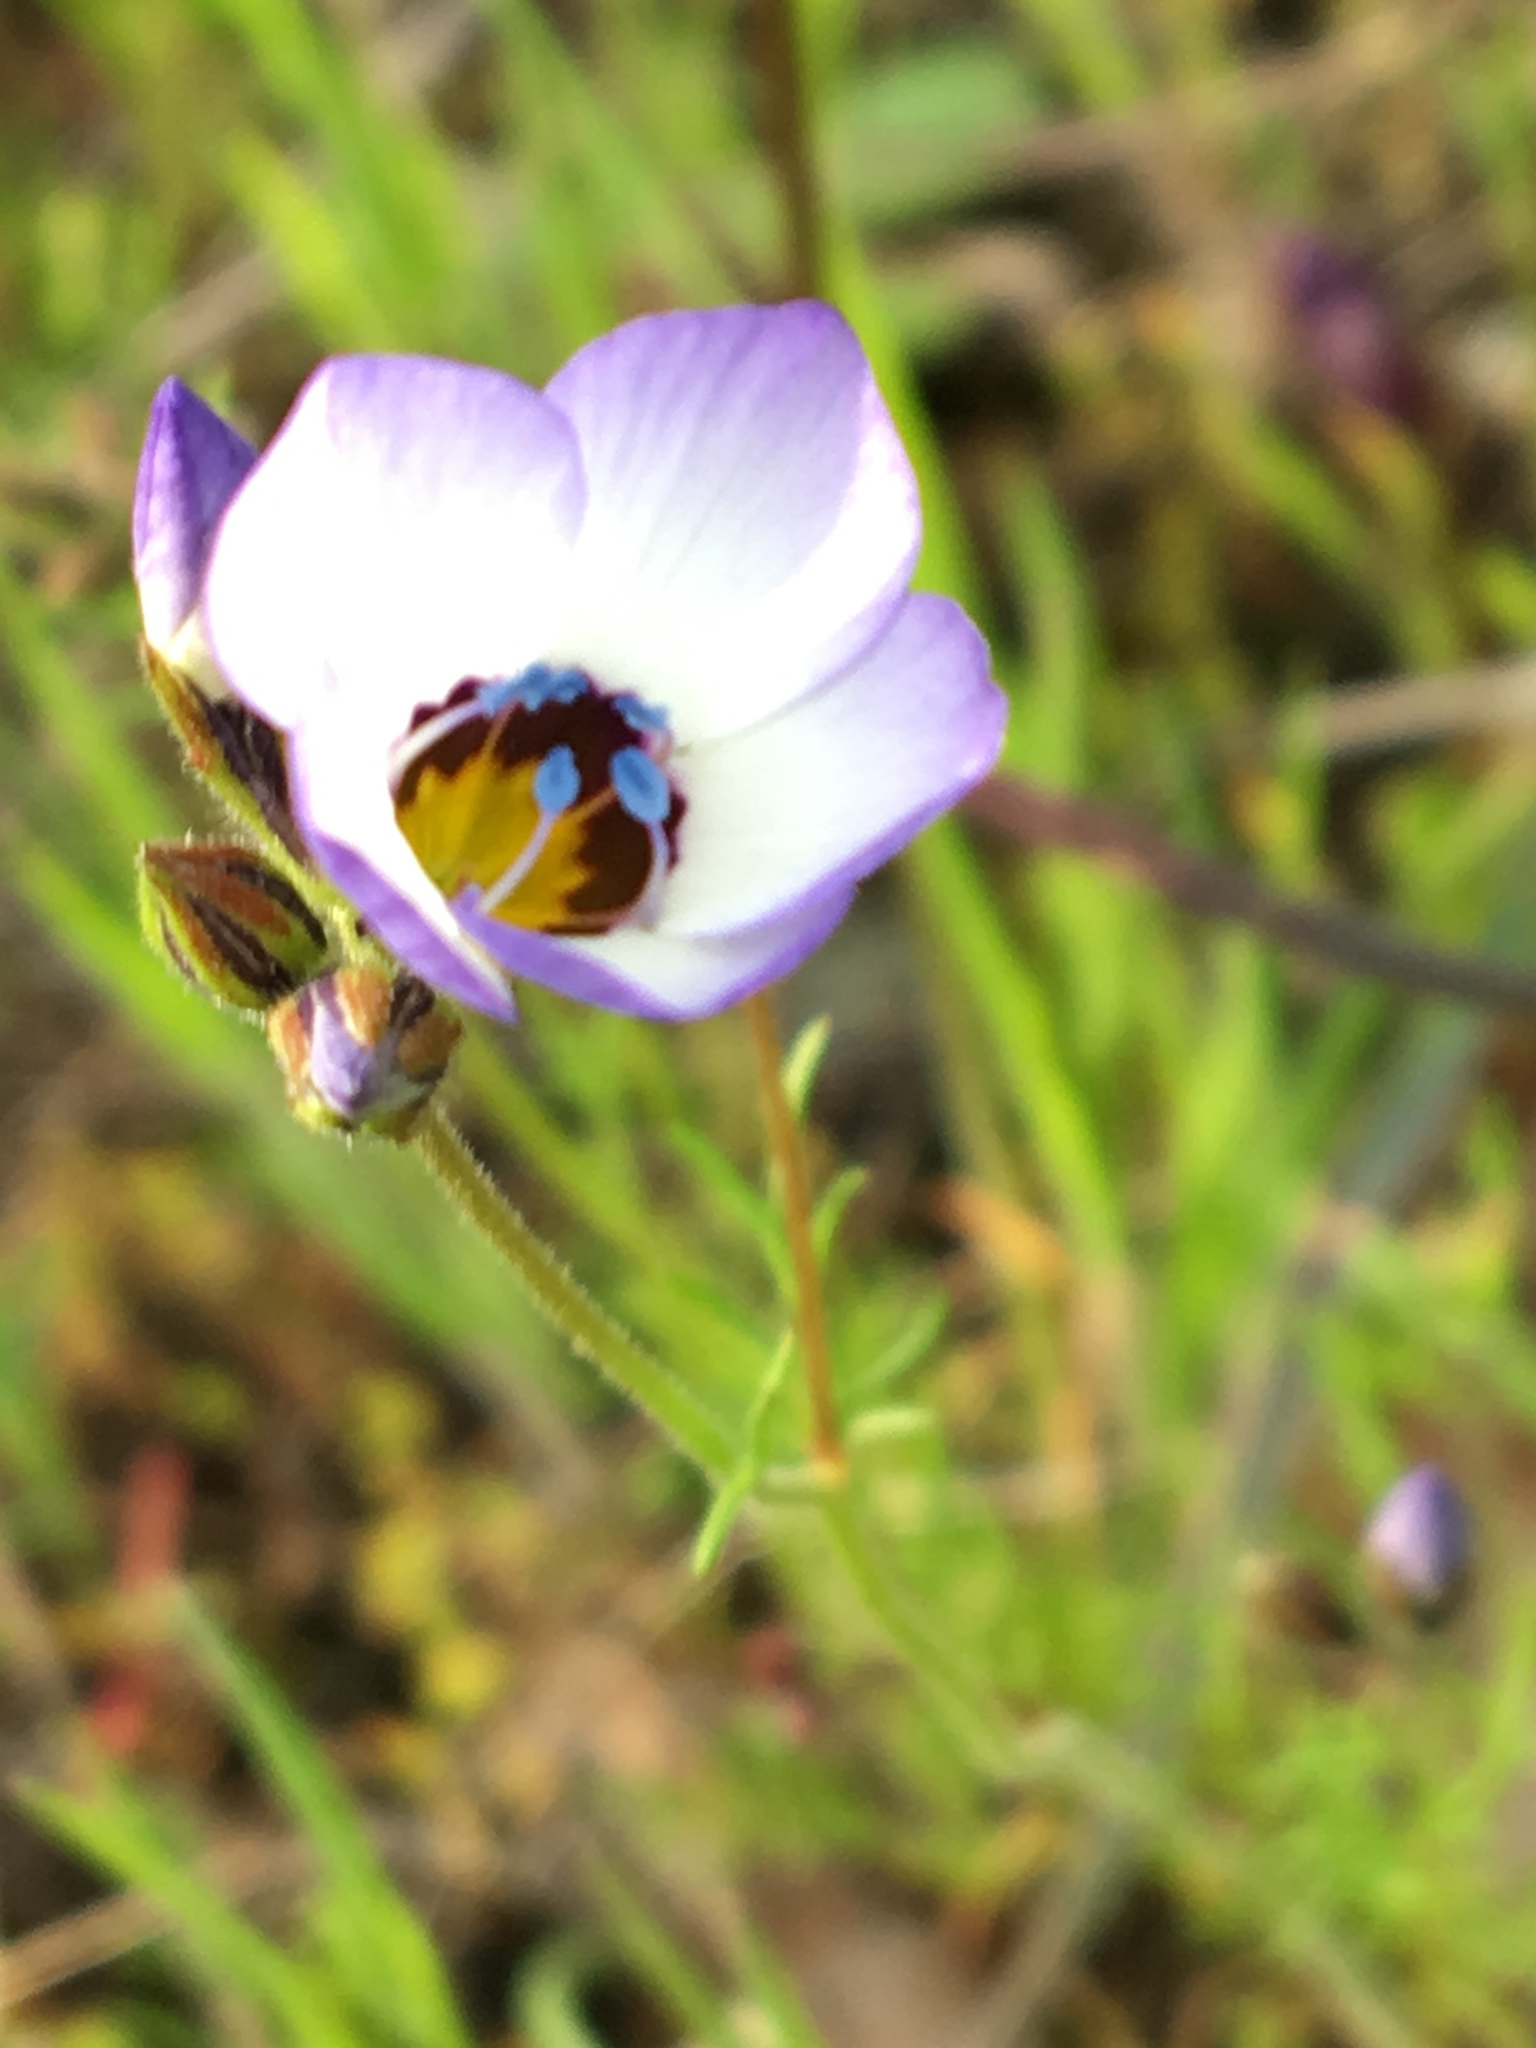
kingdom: Plantae
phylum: Tracheophyta
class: Magnoliopsida
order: Ericales
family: Polemoniaceae
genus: Gilia
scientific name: Gilia tricolor
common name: Bird's-eyes
